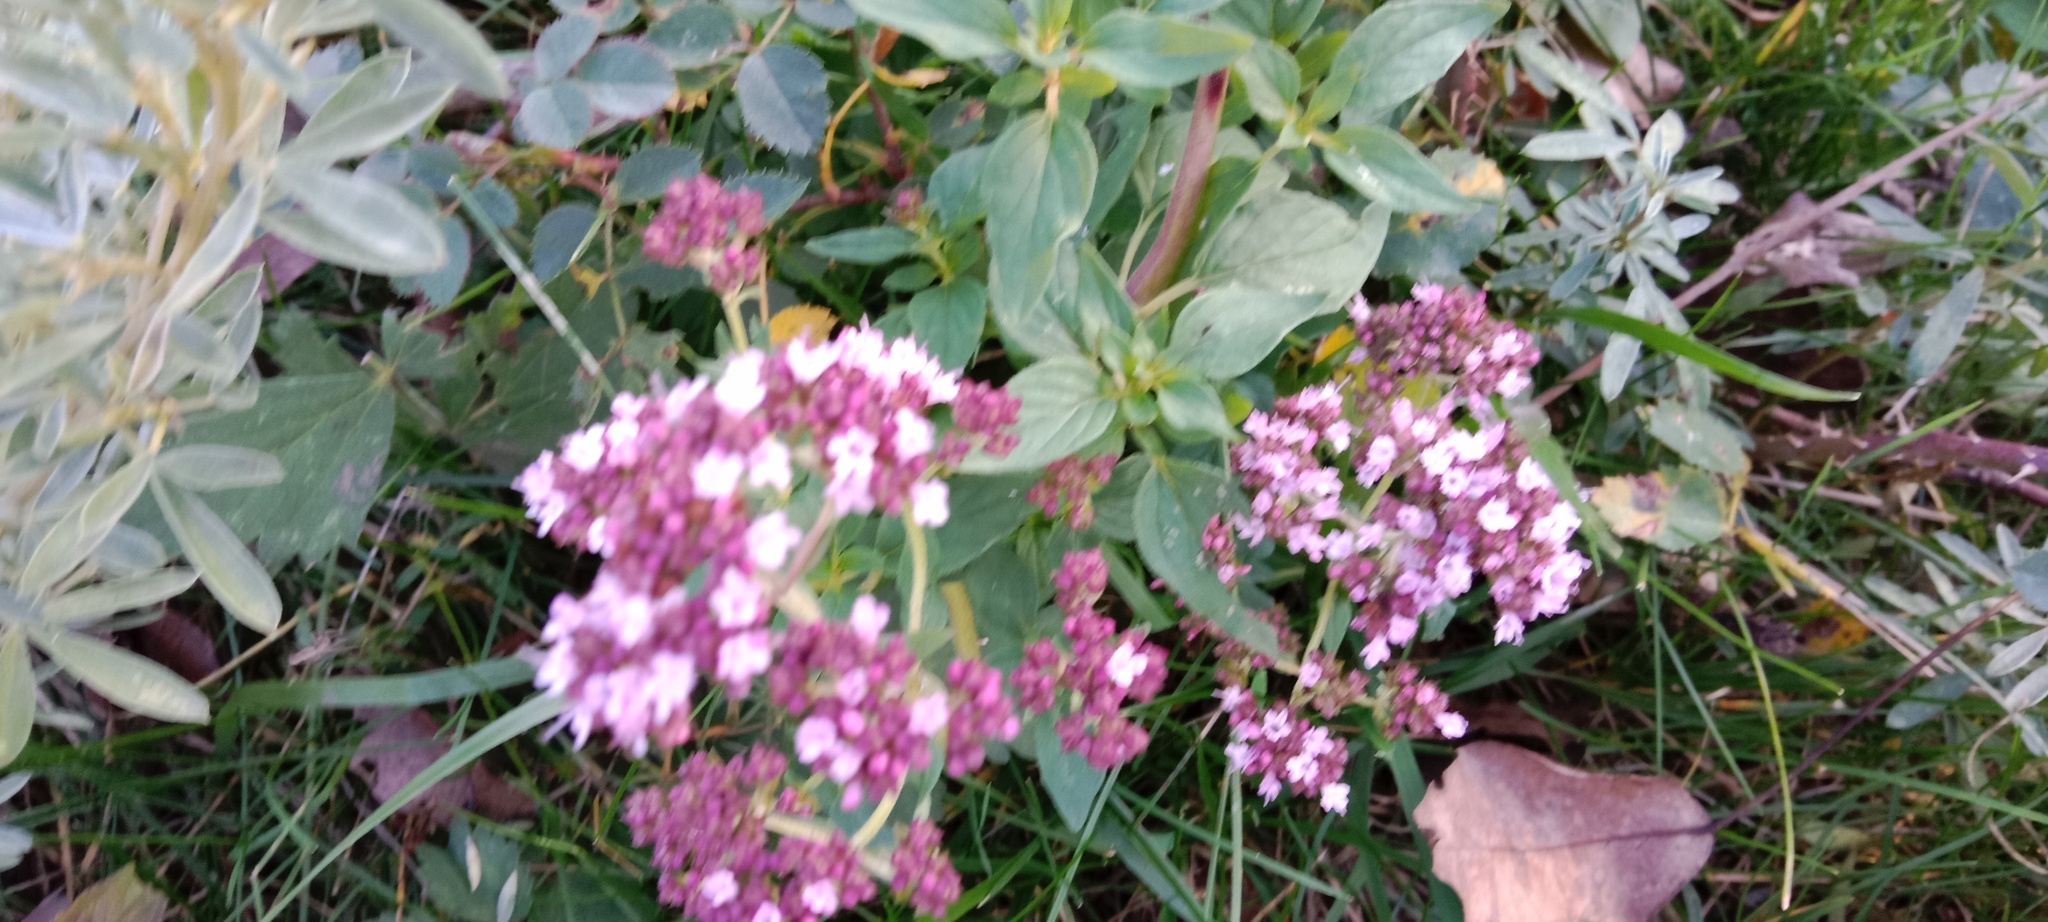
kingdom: Plantae
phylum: Tracheophyta
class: Magnoliopsida
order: Lamiales
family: Lamiaceae
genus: Origanum
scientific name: Origanum vulgare
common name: Wild marjoram
